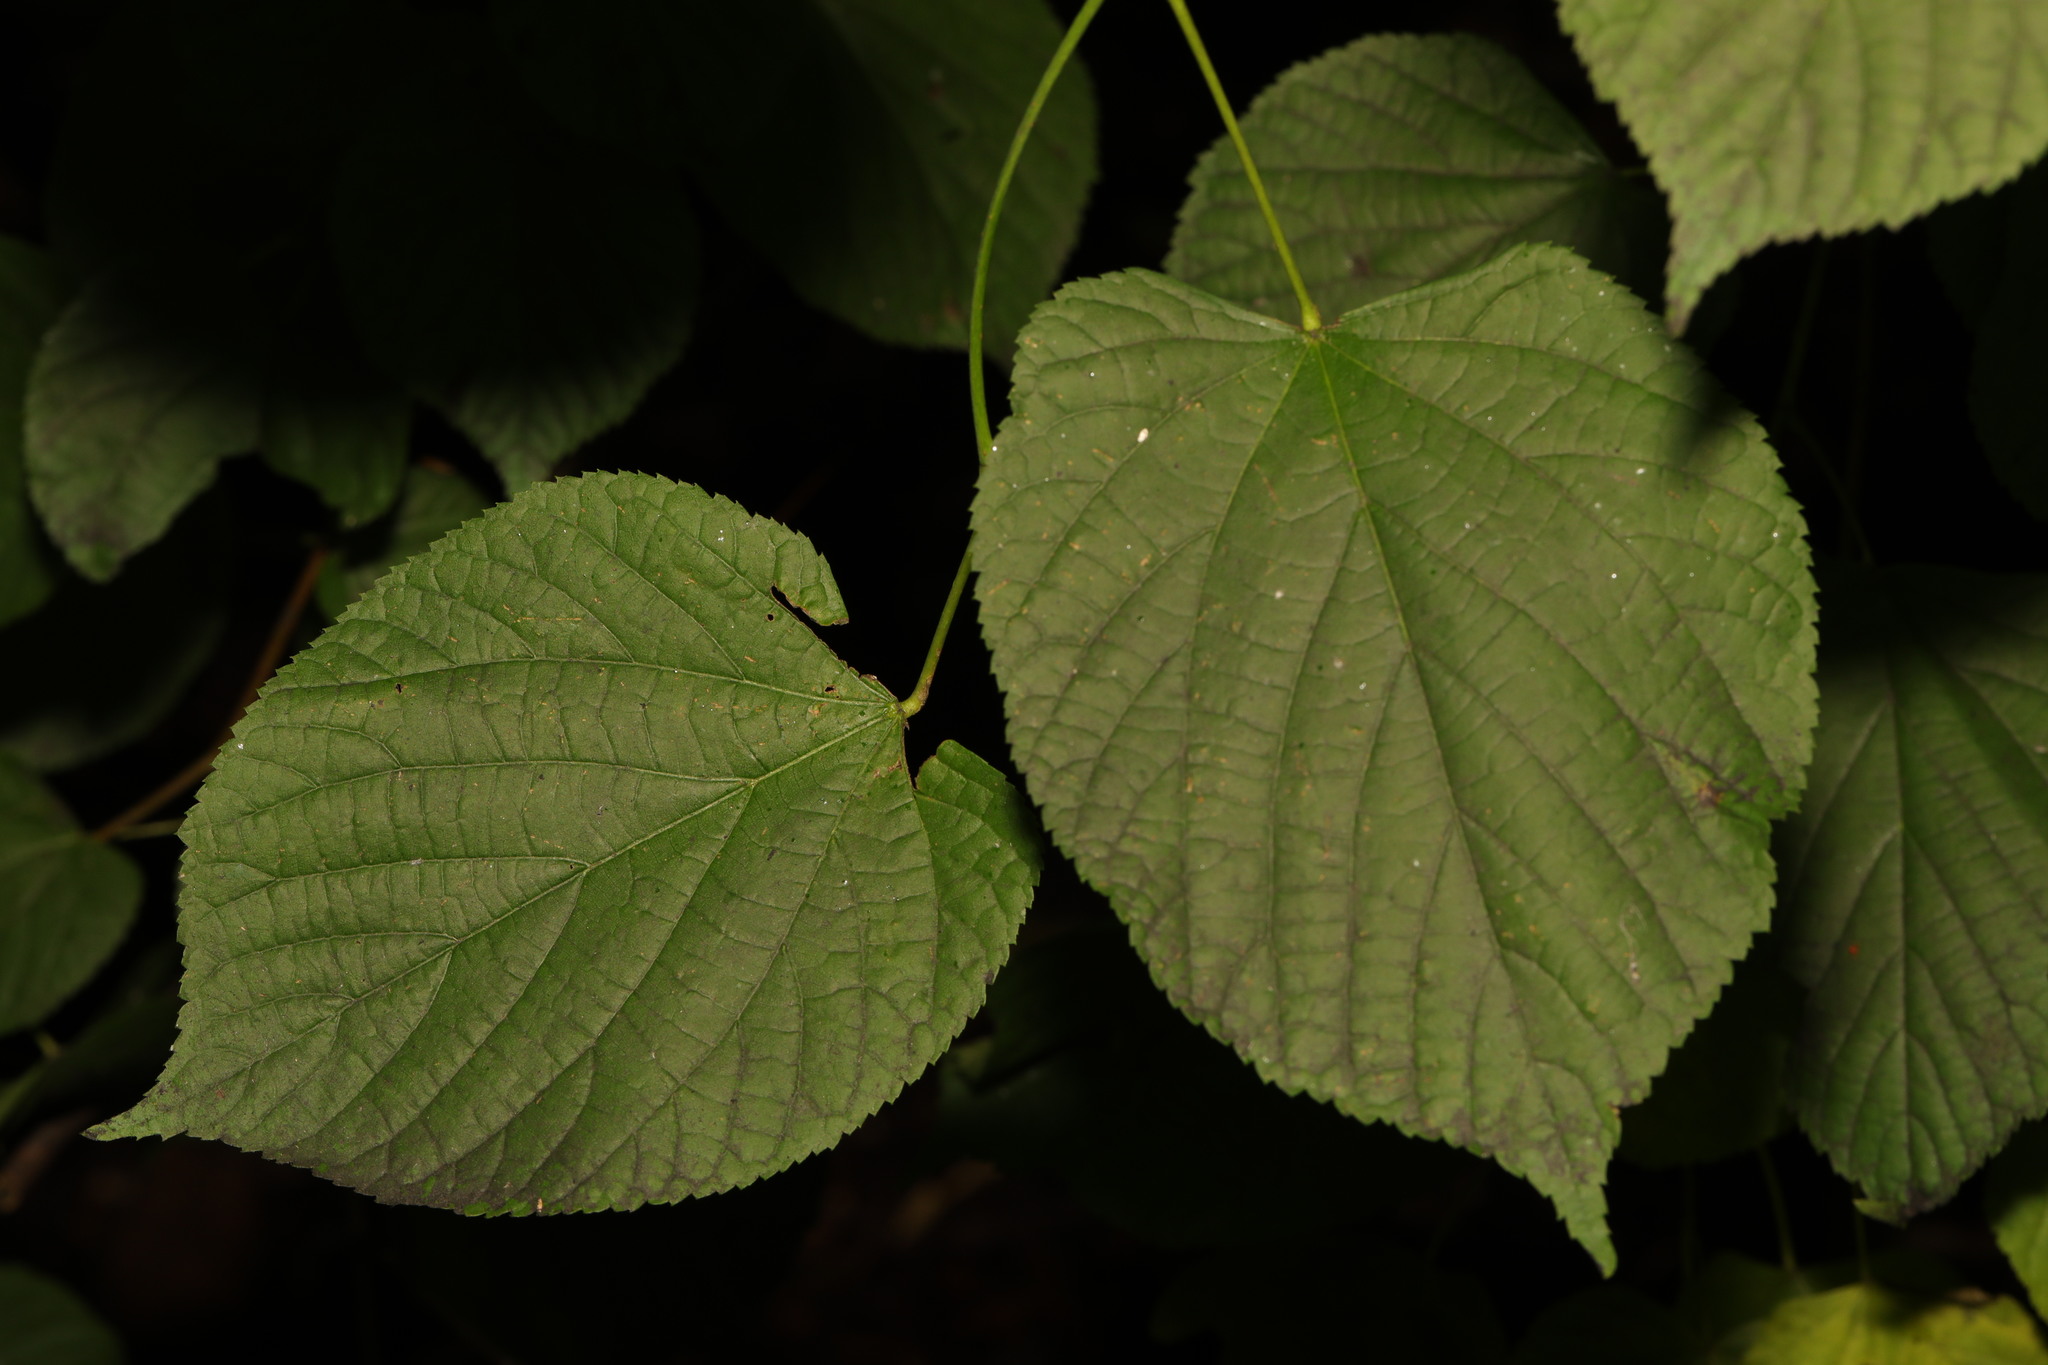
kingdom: Plantae
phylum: Tracheophyta
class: Magnoliopsida
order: Malvales
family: Malvaceae
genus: Tilia
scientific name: Tilia europaea
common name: European linden
